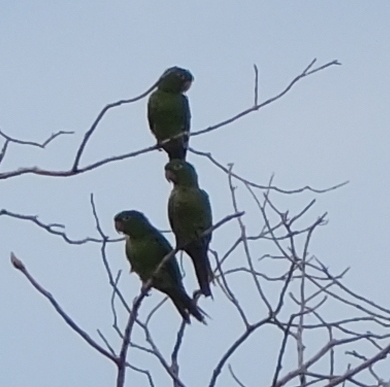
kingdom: Animalia
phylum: Chordata
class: Aves
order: Psittaciformes
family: Psittacidae
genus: Aratinga
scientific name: Aratinga leucophthalma
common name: White-eyed parakeet
